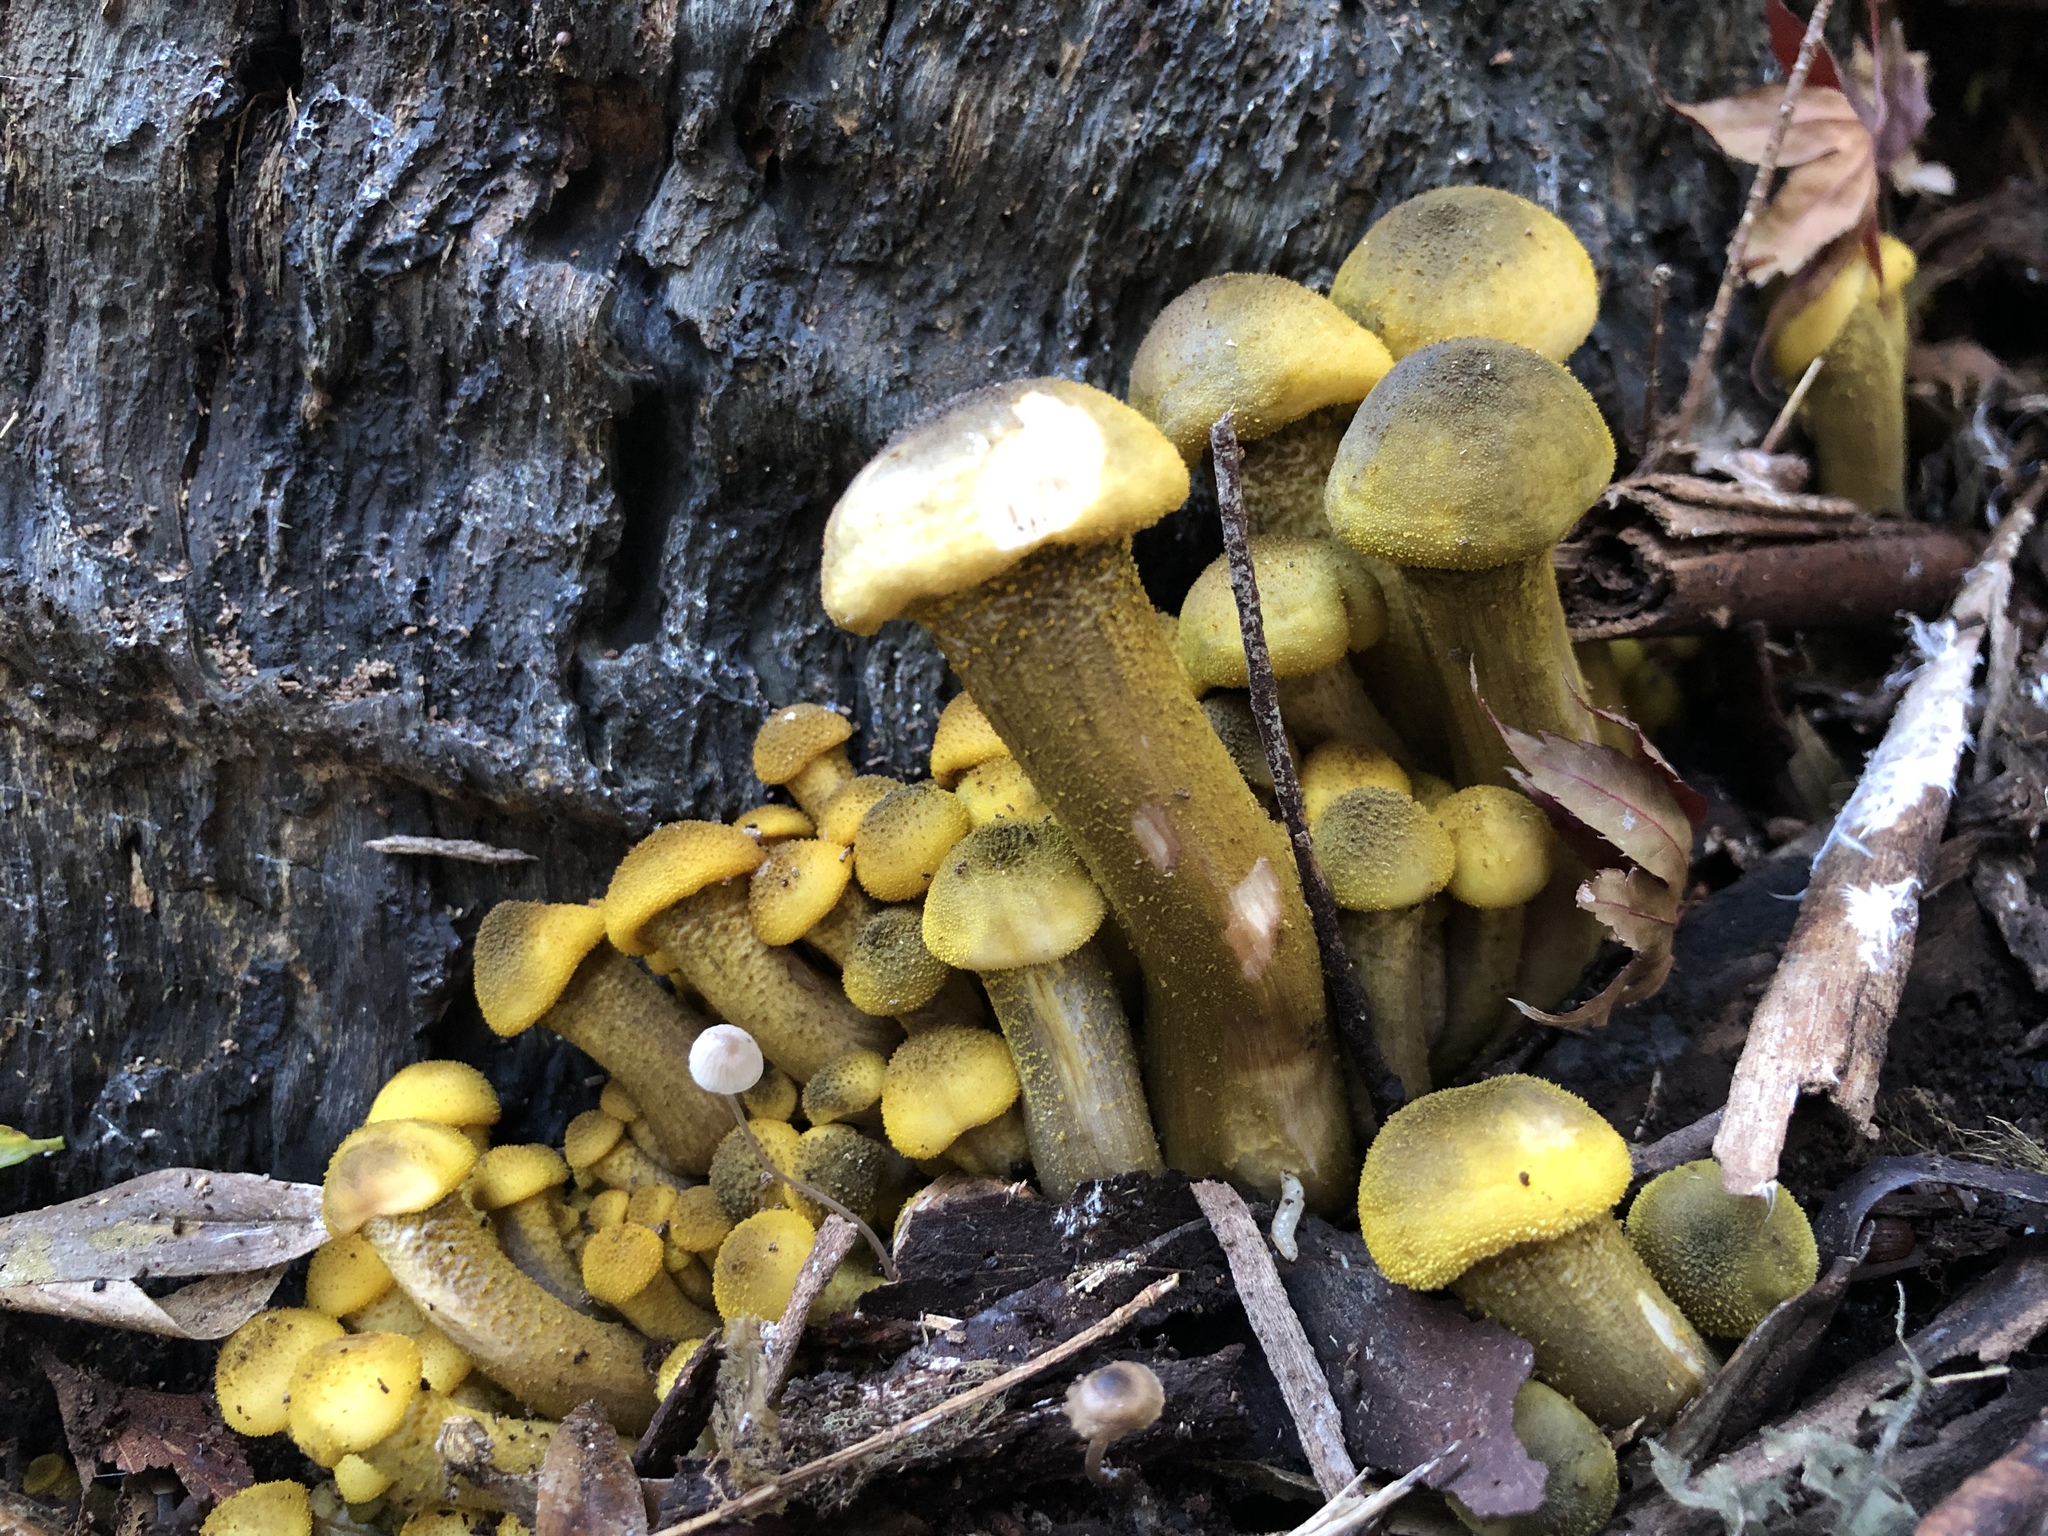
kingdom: Fungi
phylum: Basidiomycota
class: Agaricomycetes
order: Agaricales
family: Physalacriaceae
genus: Armillaria
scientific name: Armillaria luteobubalina
